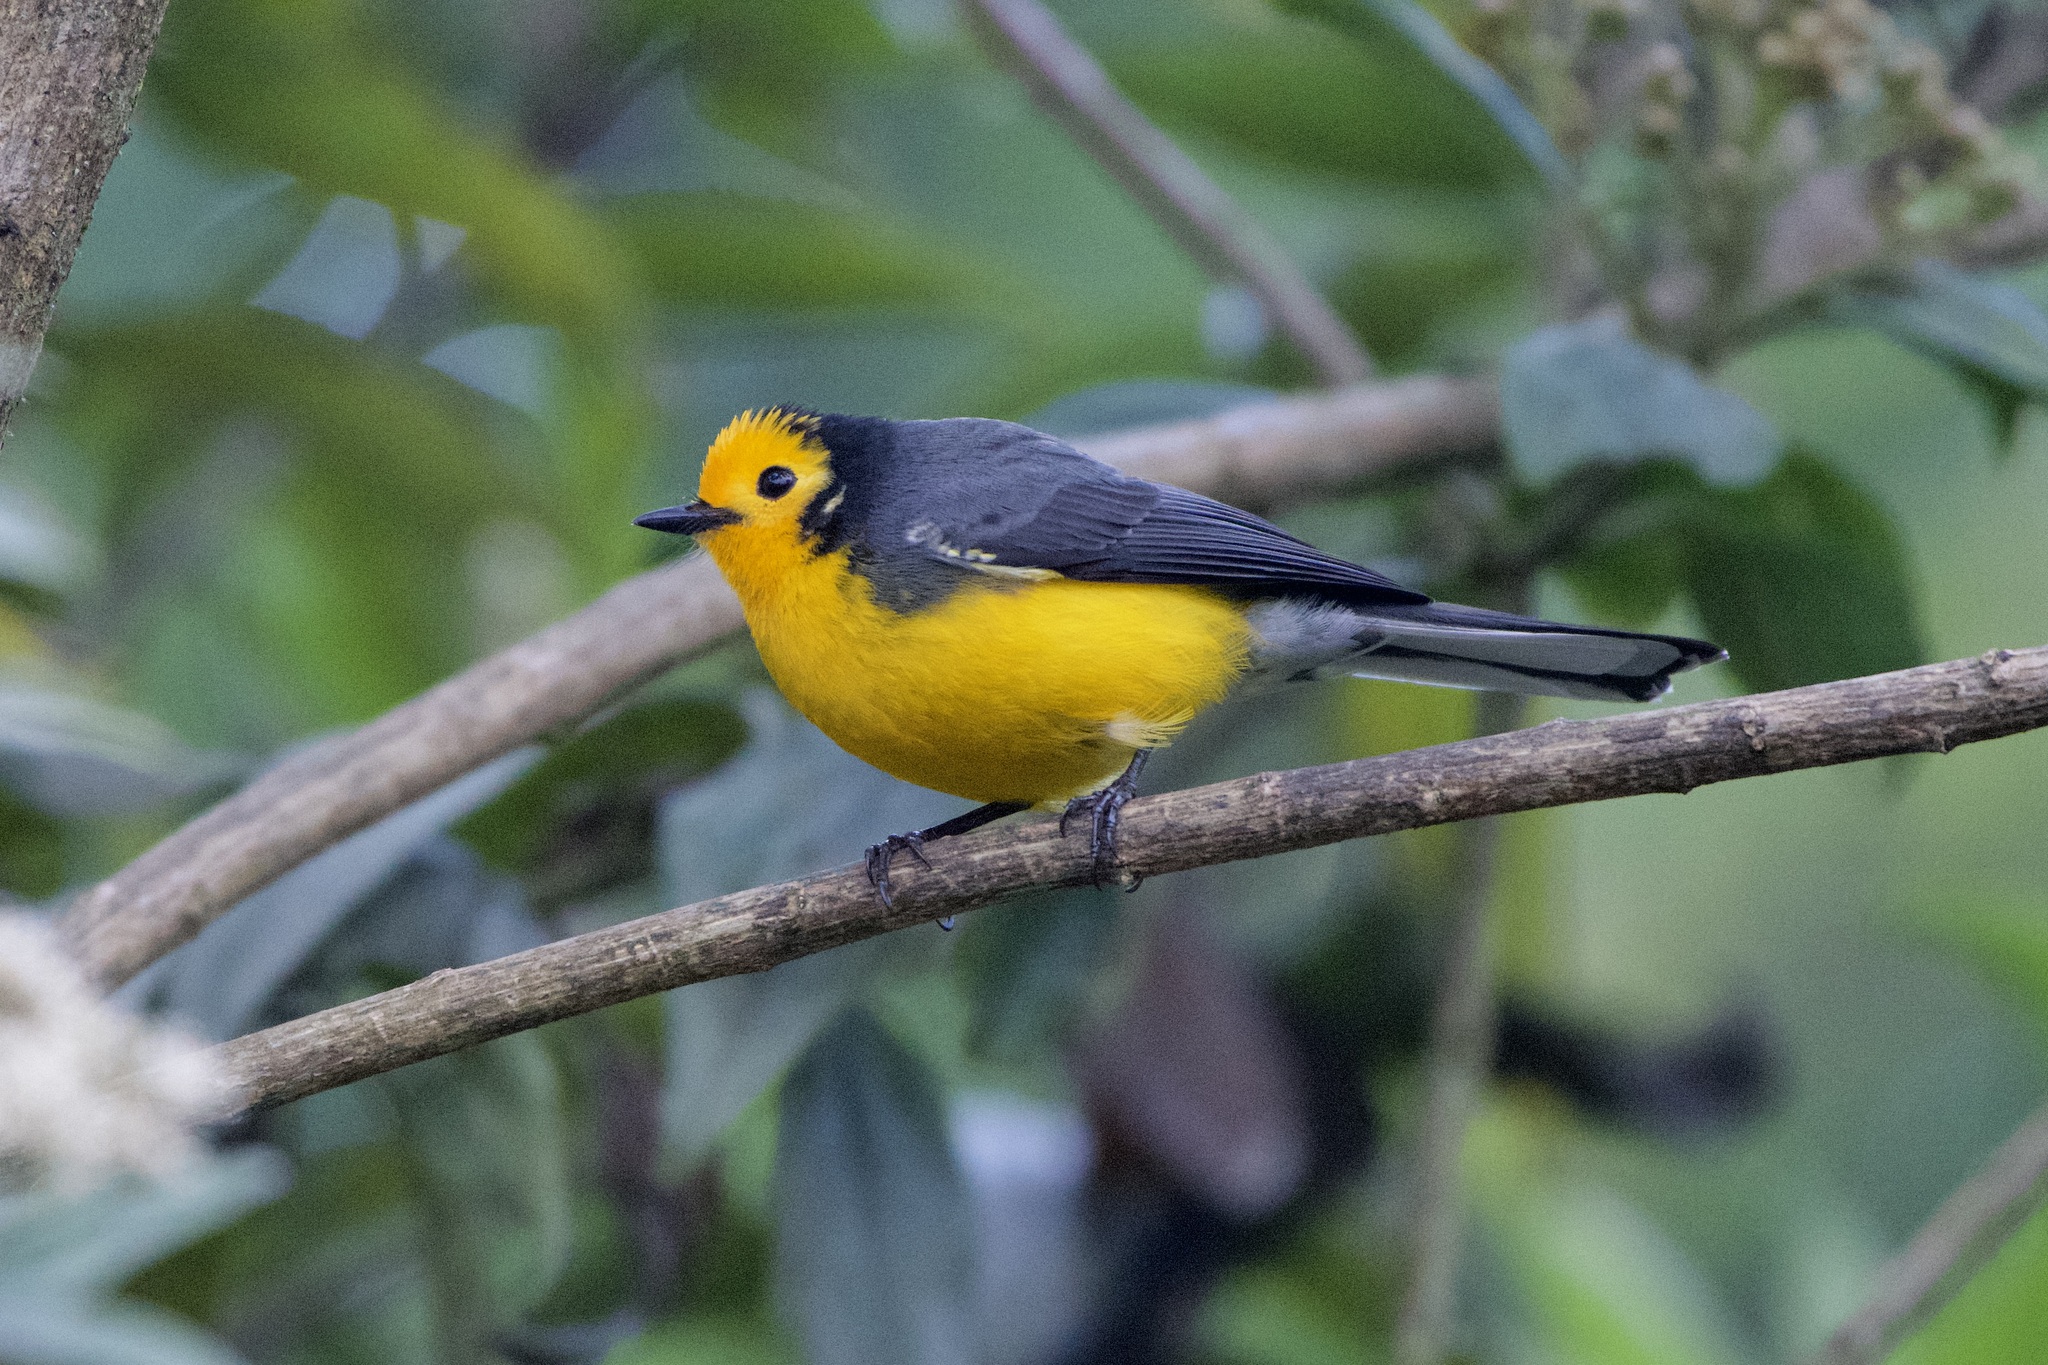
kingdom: Animalia
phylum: Chordata
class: Aves
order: Passeriformes
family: Parulidae
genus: Myioborus
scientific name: Myioborus ornatus
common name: Golden-fronted whitestart
